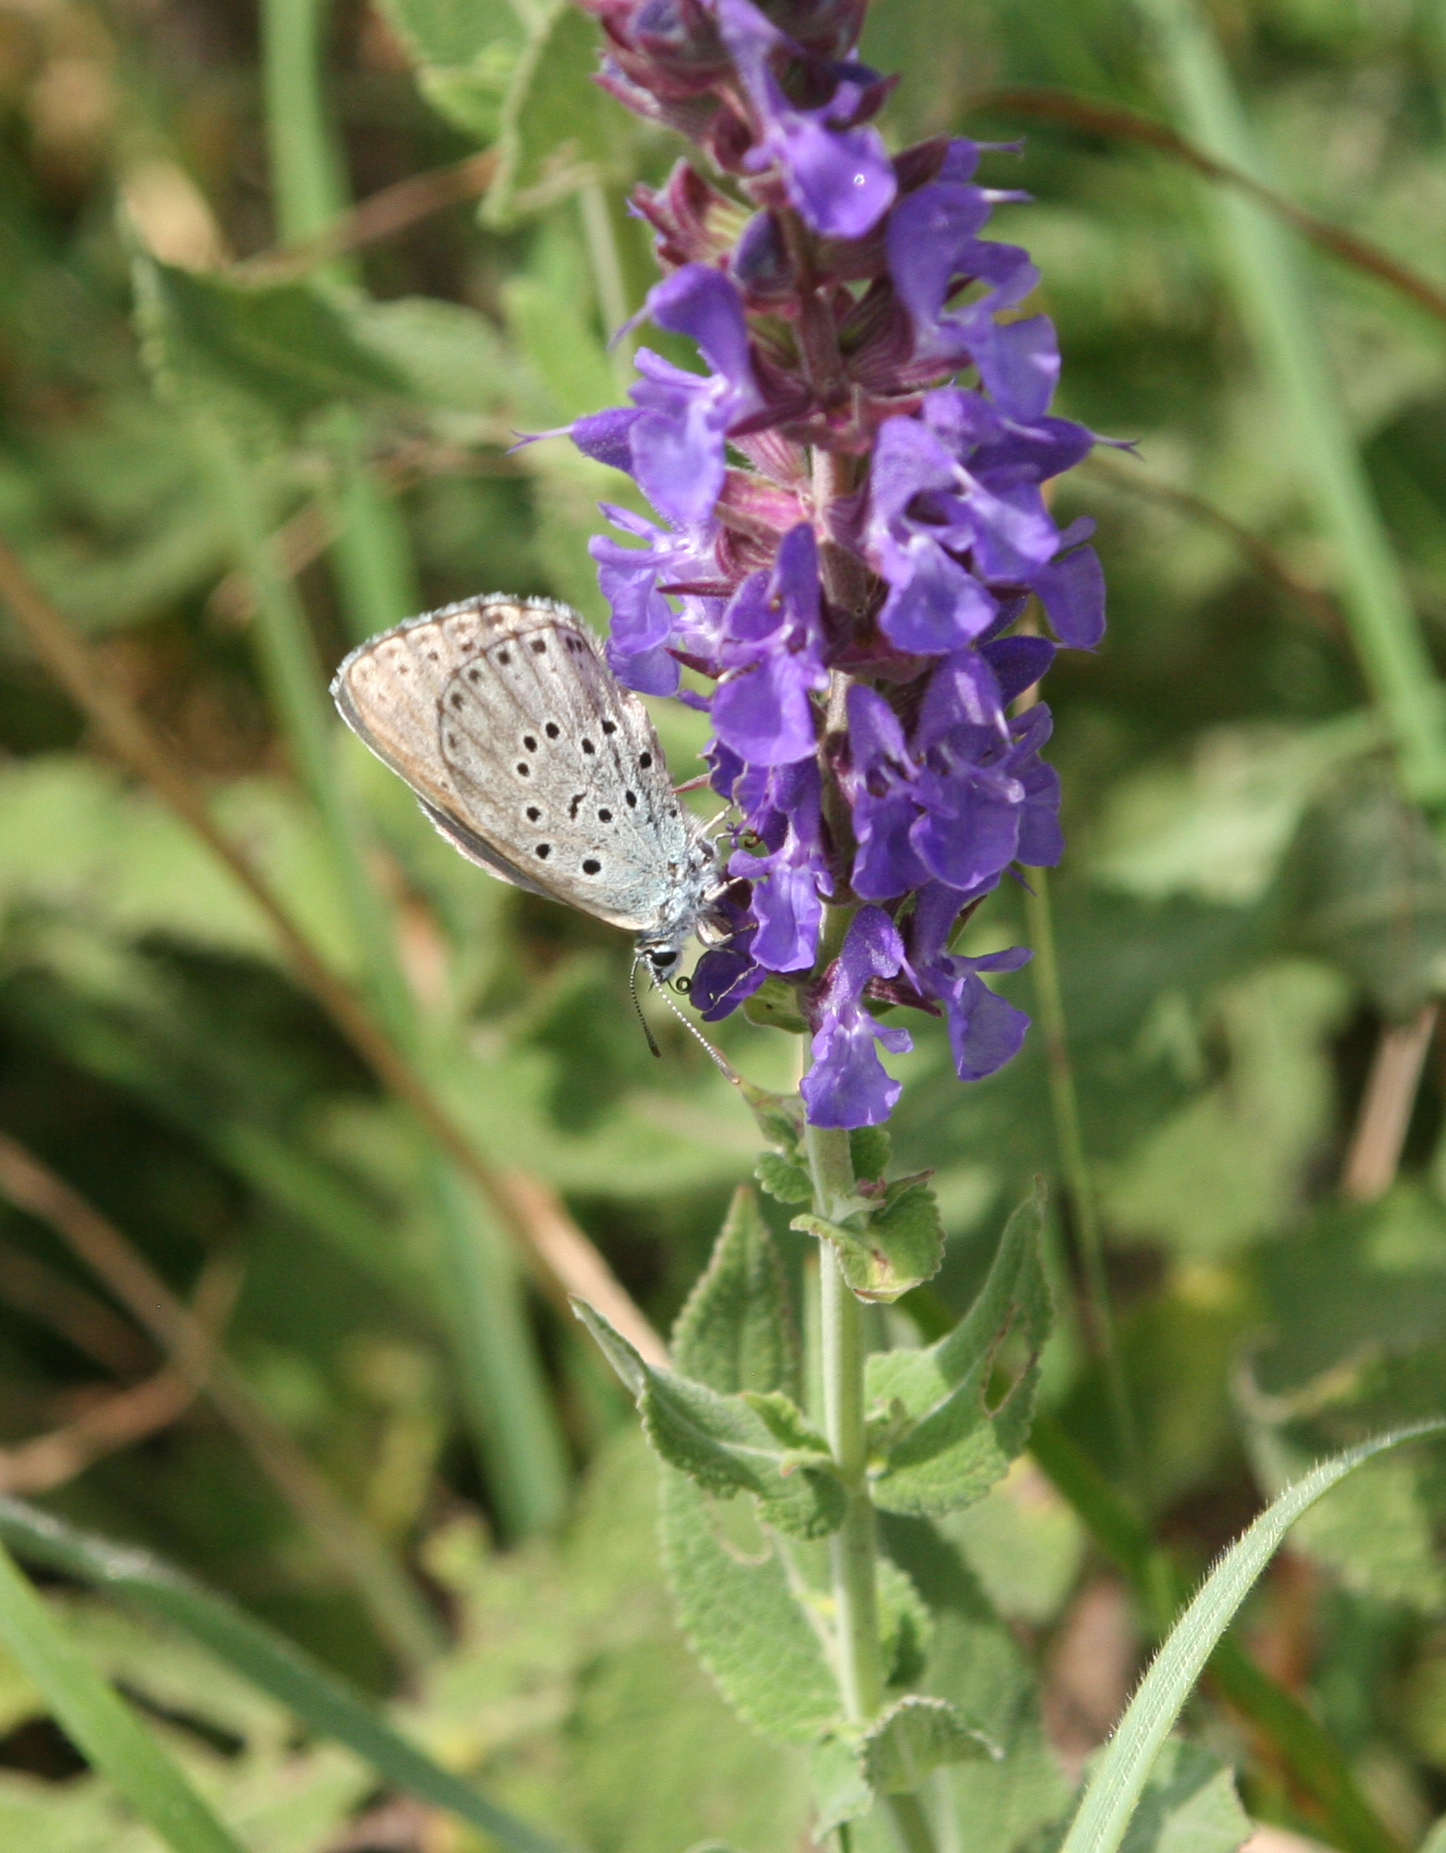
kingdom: Plantae
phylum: Tracheophyta
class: Magnoliopsida
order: Lamiales
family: Lamiaceae
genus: Salvia
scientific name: Salvia nemorosa
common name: Balkan clary
